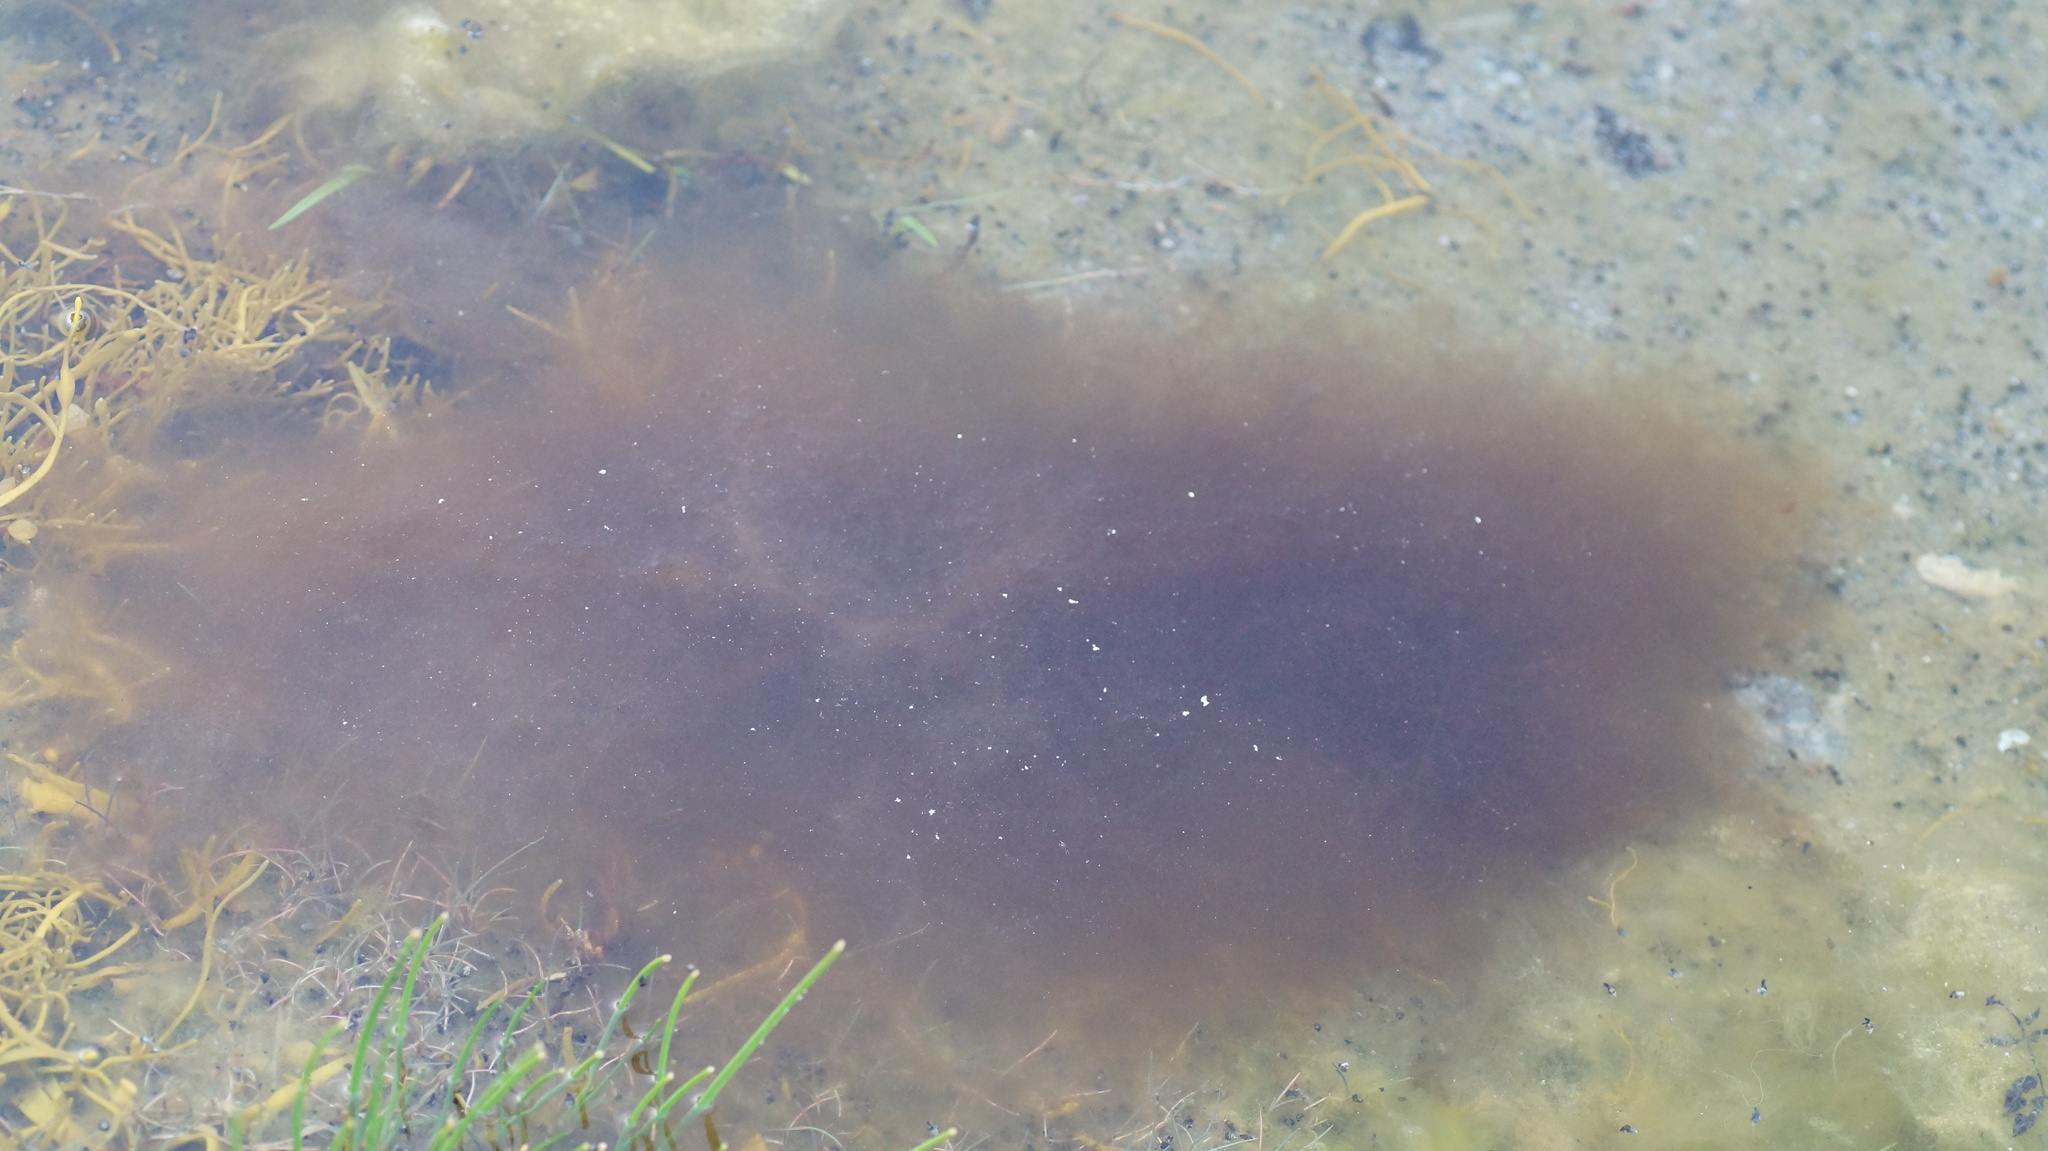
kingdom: Animalia
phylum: Cnidaria
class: Scyphozoa
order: Semaeostomeae
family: Ulmaridae
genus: Aurelia
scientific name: Aurelia aurita
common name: Moon jellyfish
